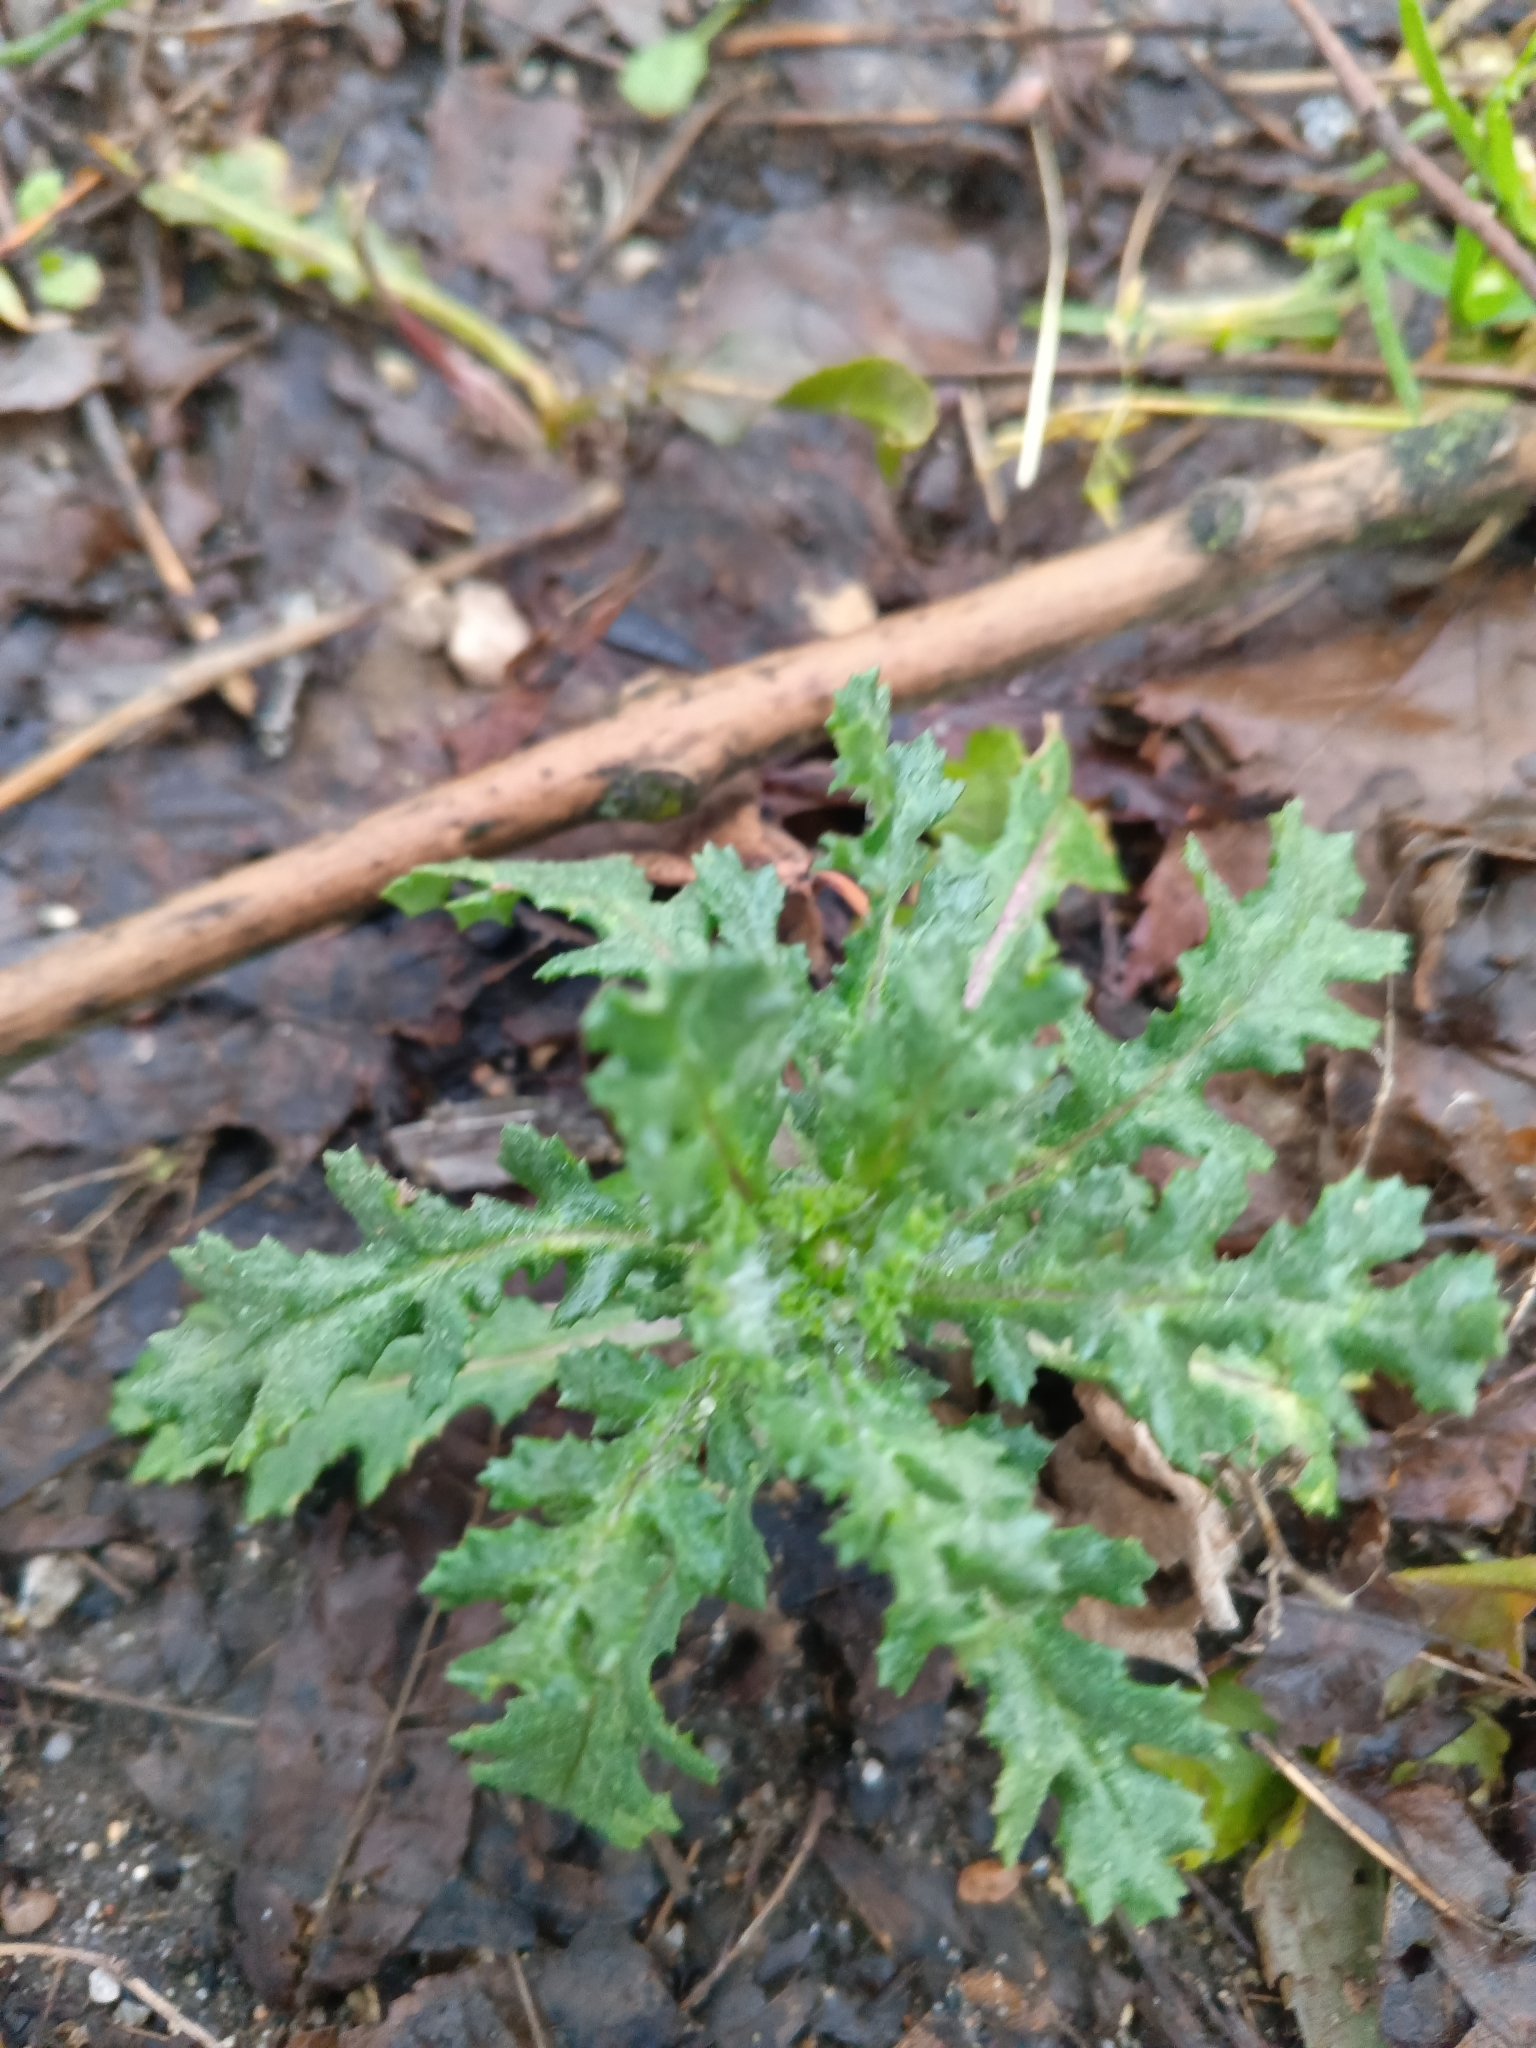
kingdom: Plantae
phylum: Tracheophyta
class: Magnoliopsida
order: Asterales
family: Asteraceae
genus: Senecio
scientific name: Senecio vulgaris
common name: Old-man-in-the-spring
